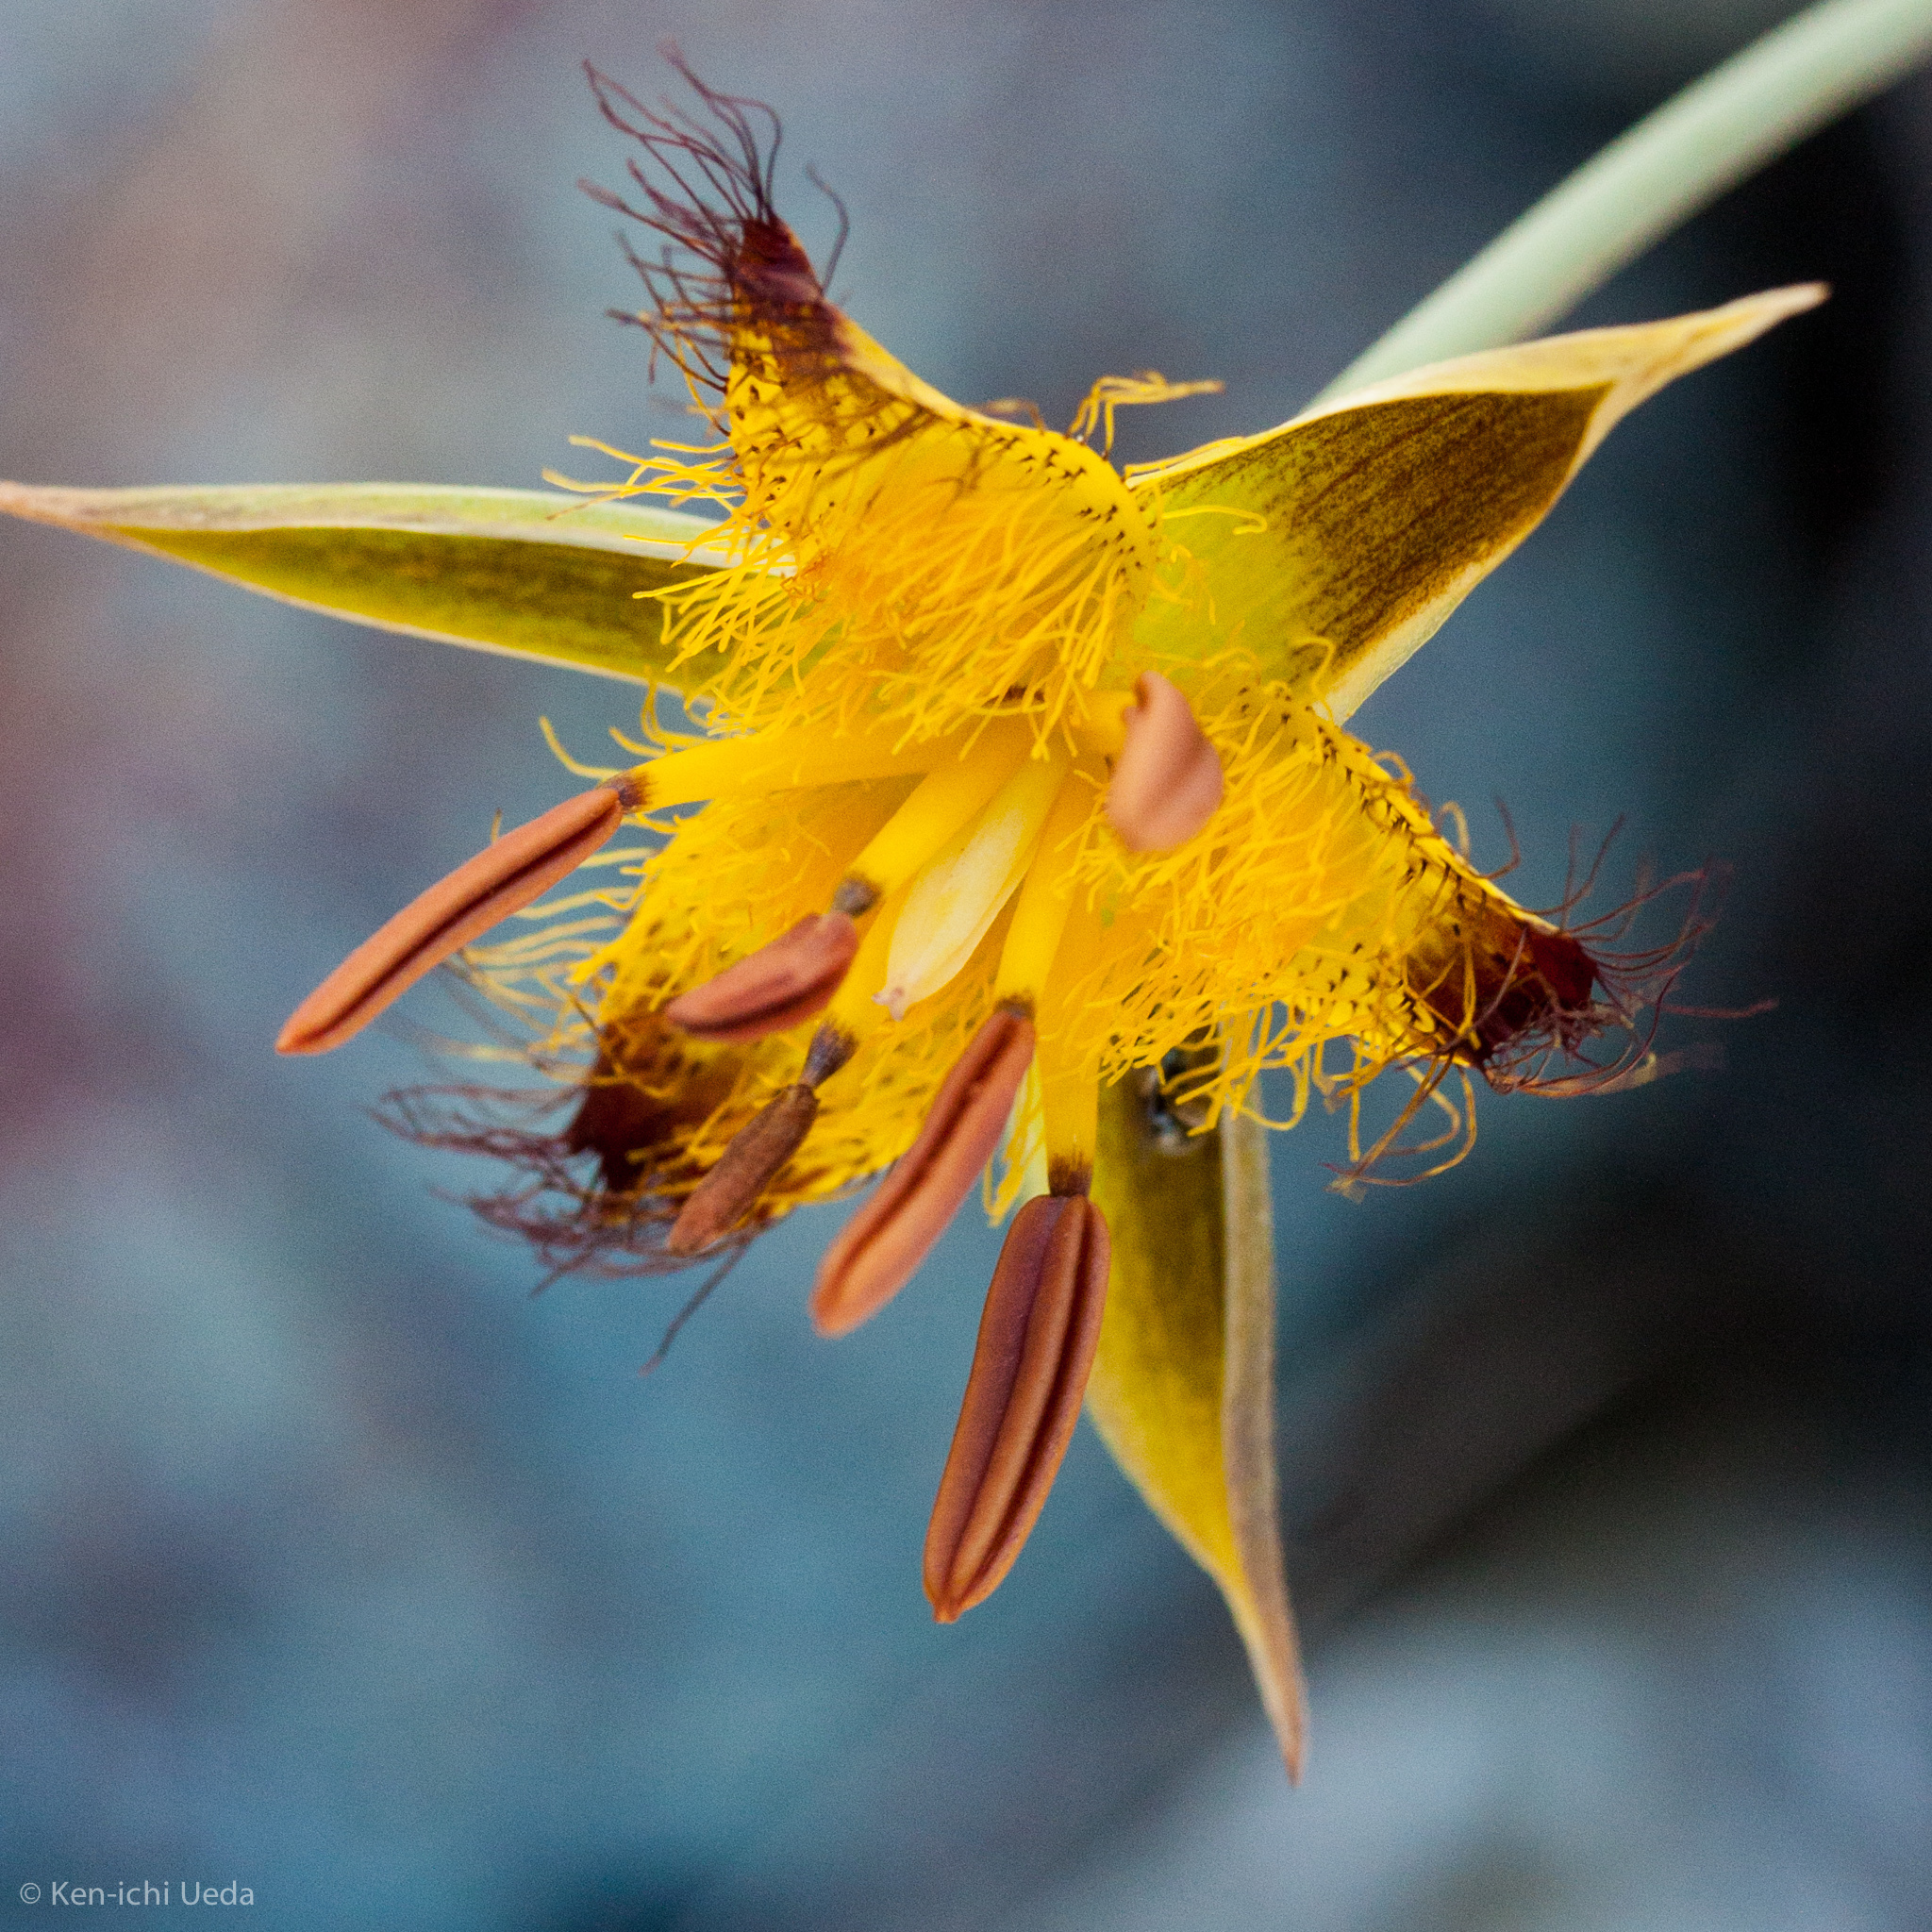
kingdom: Plantae
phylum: Tracheophyta
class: Liliopsida
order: Liliales
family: Liliaceae
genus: Calochortus
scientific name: Calochortus obispoensis
